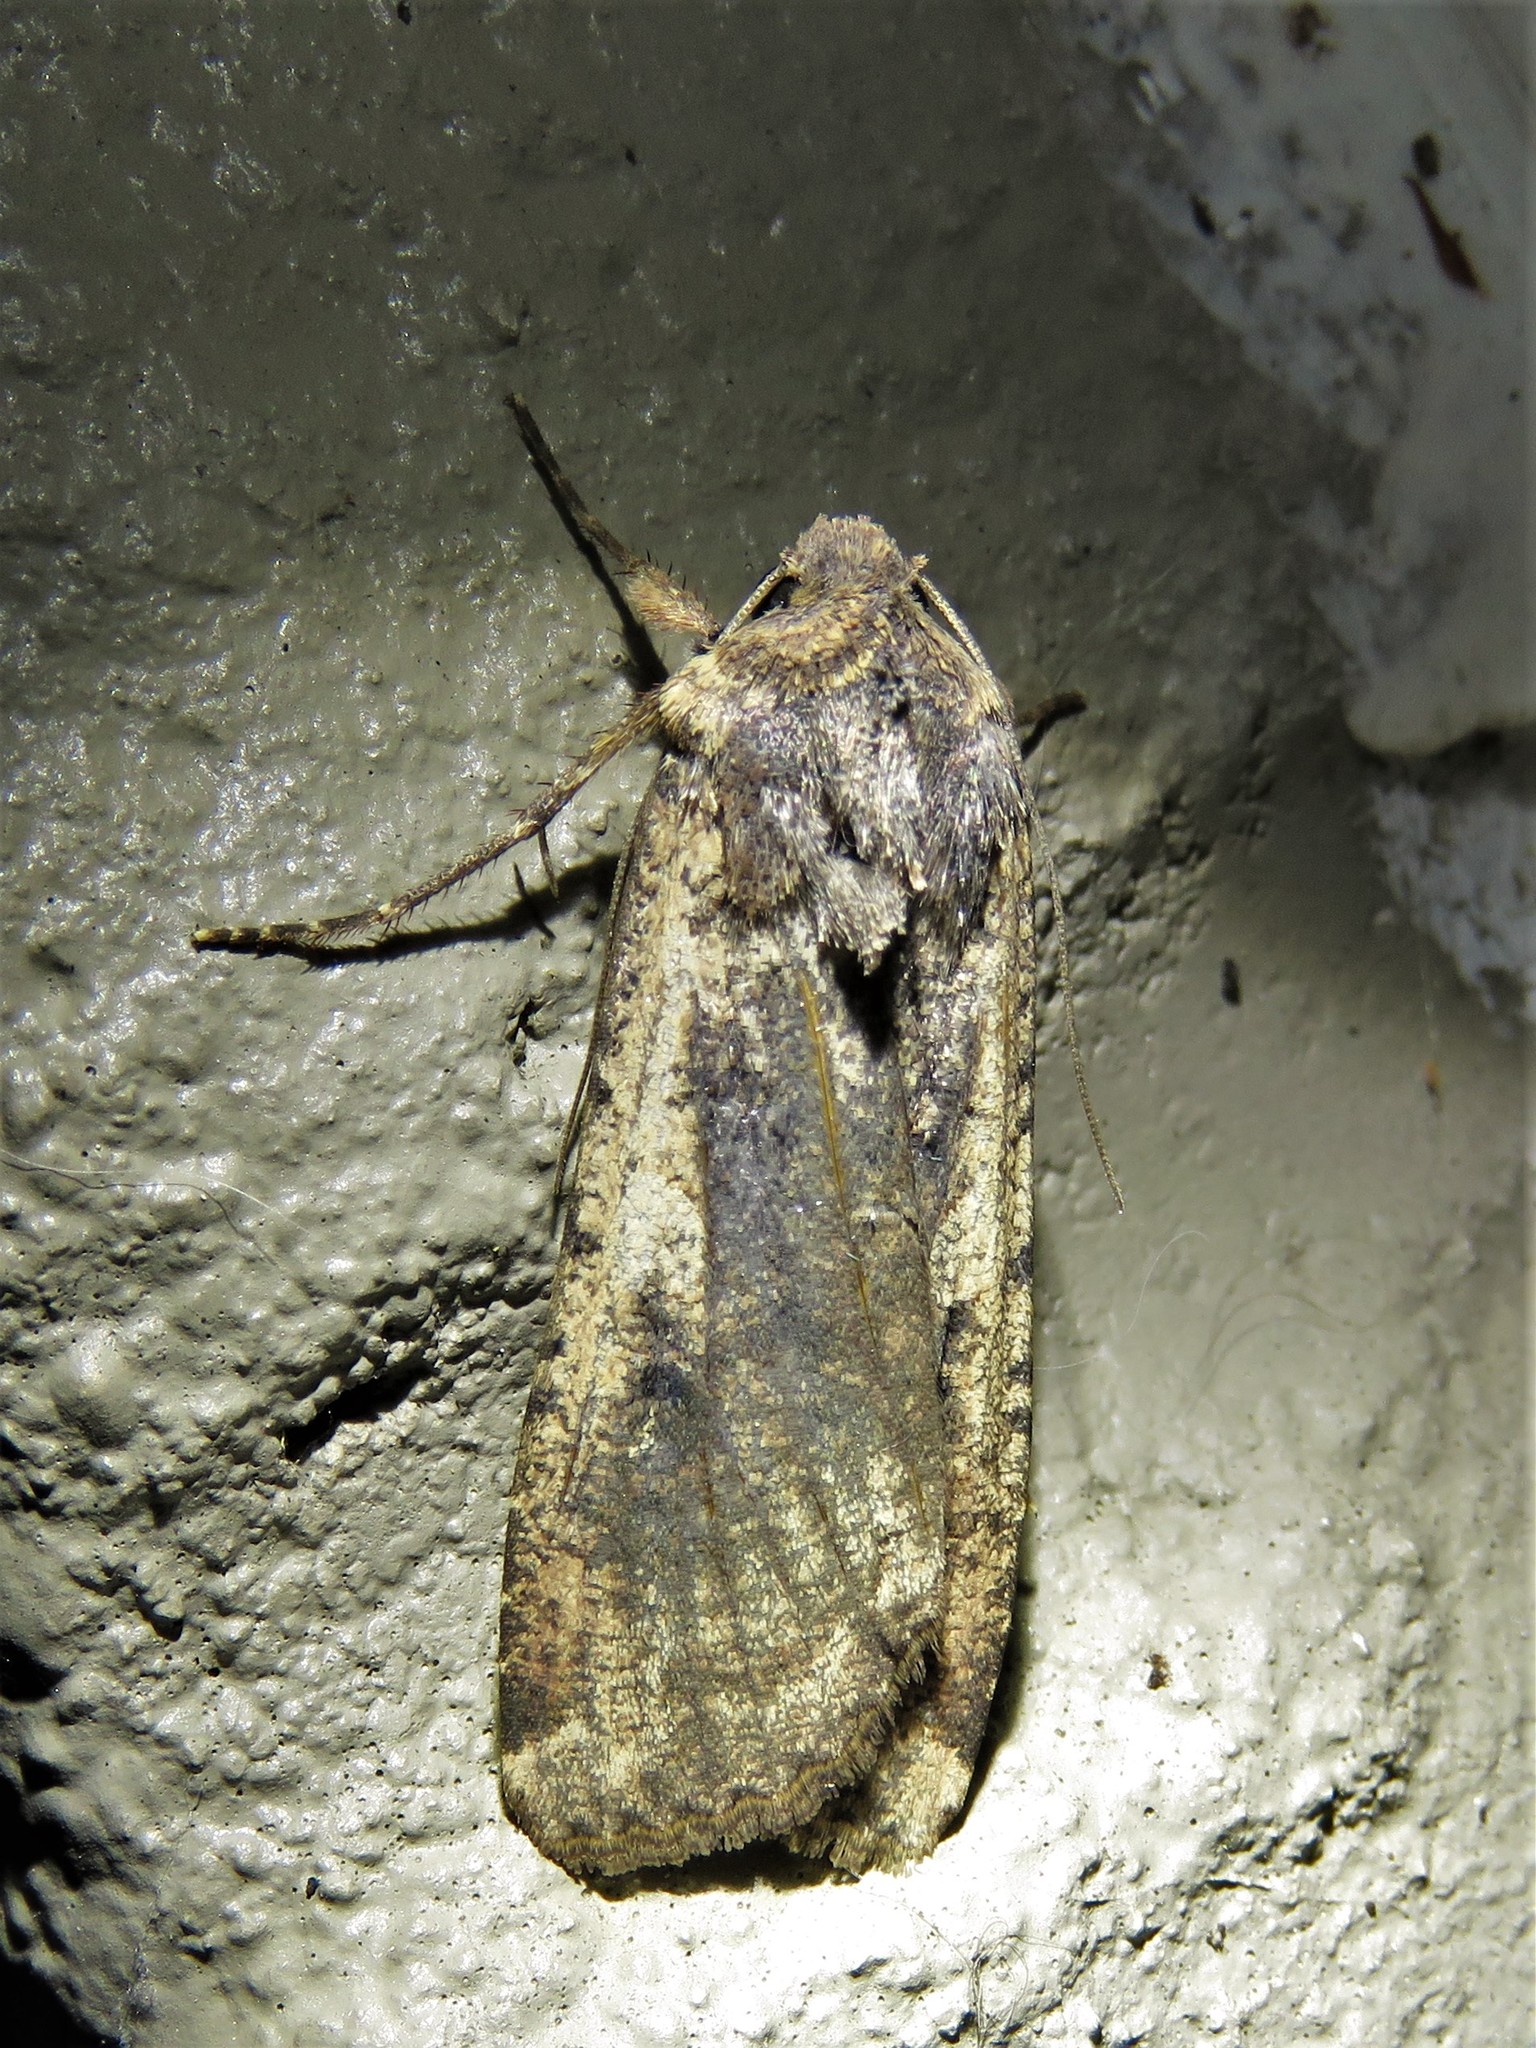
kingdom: Animalia
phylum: Arthropoda
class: Insecta
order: Lepidoptera
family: Noctuidae
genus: Peridroma
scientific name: Peridroma saucia
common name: Pearly underwing
